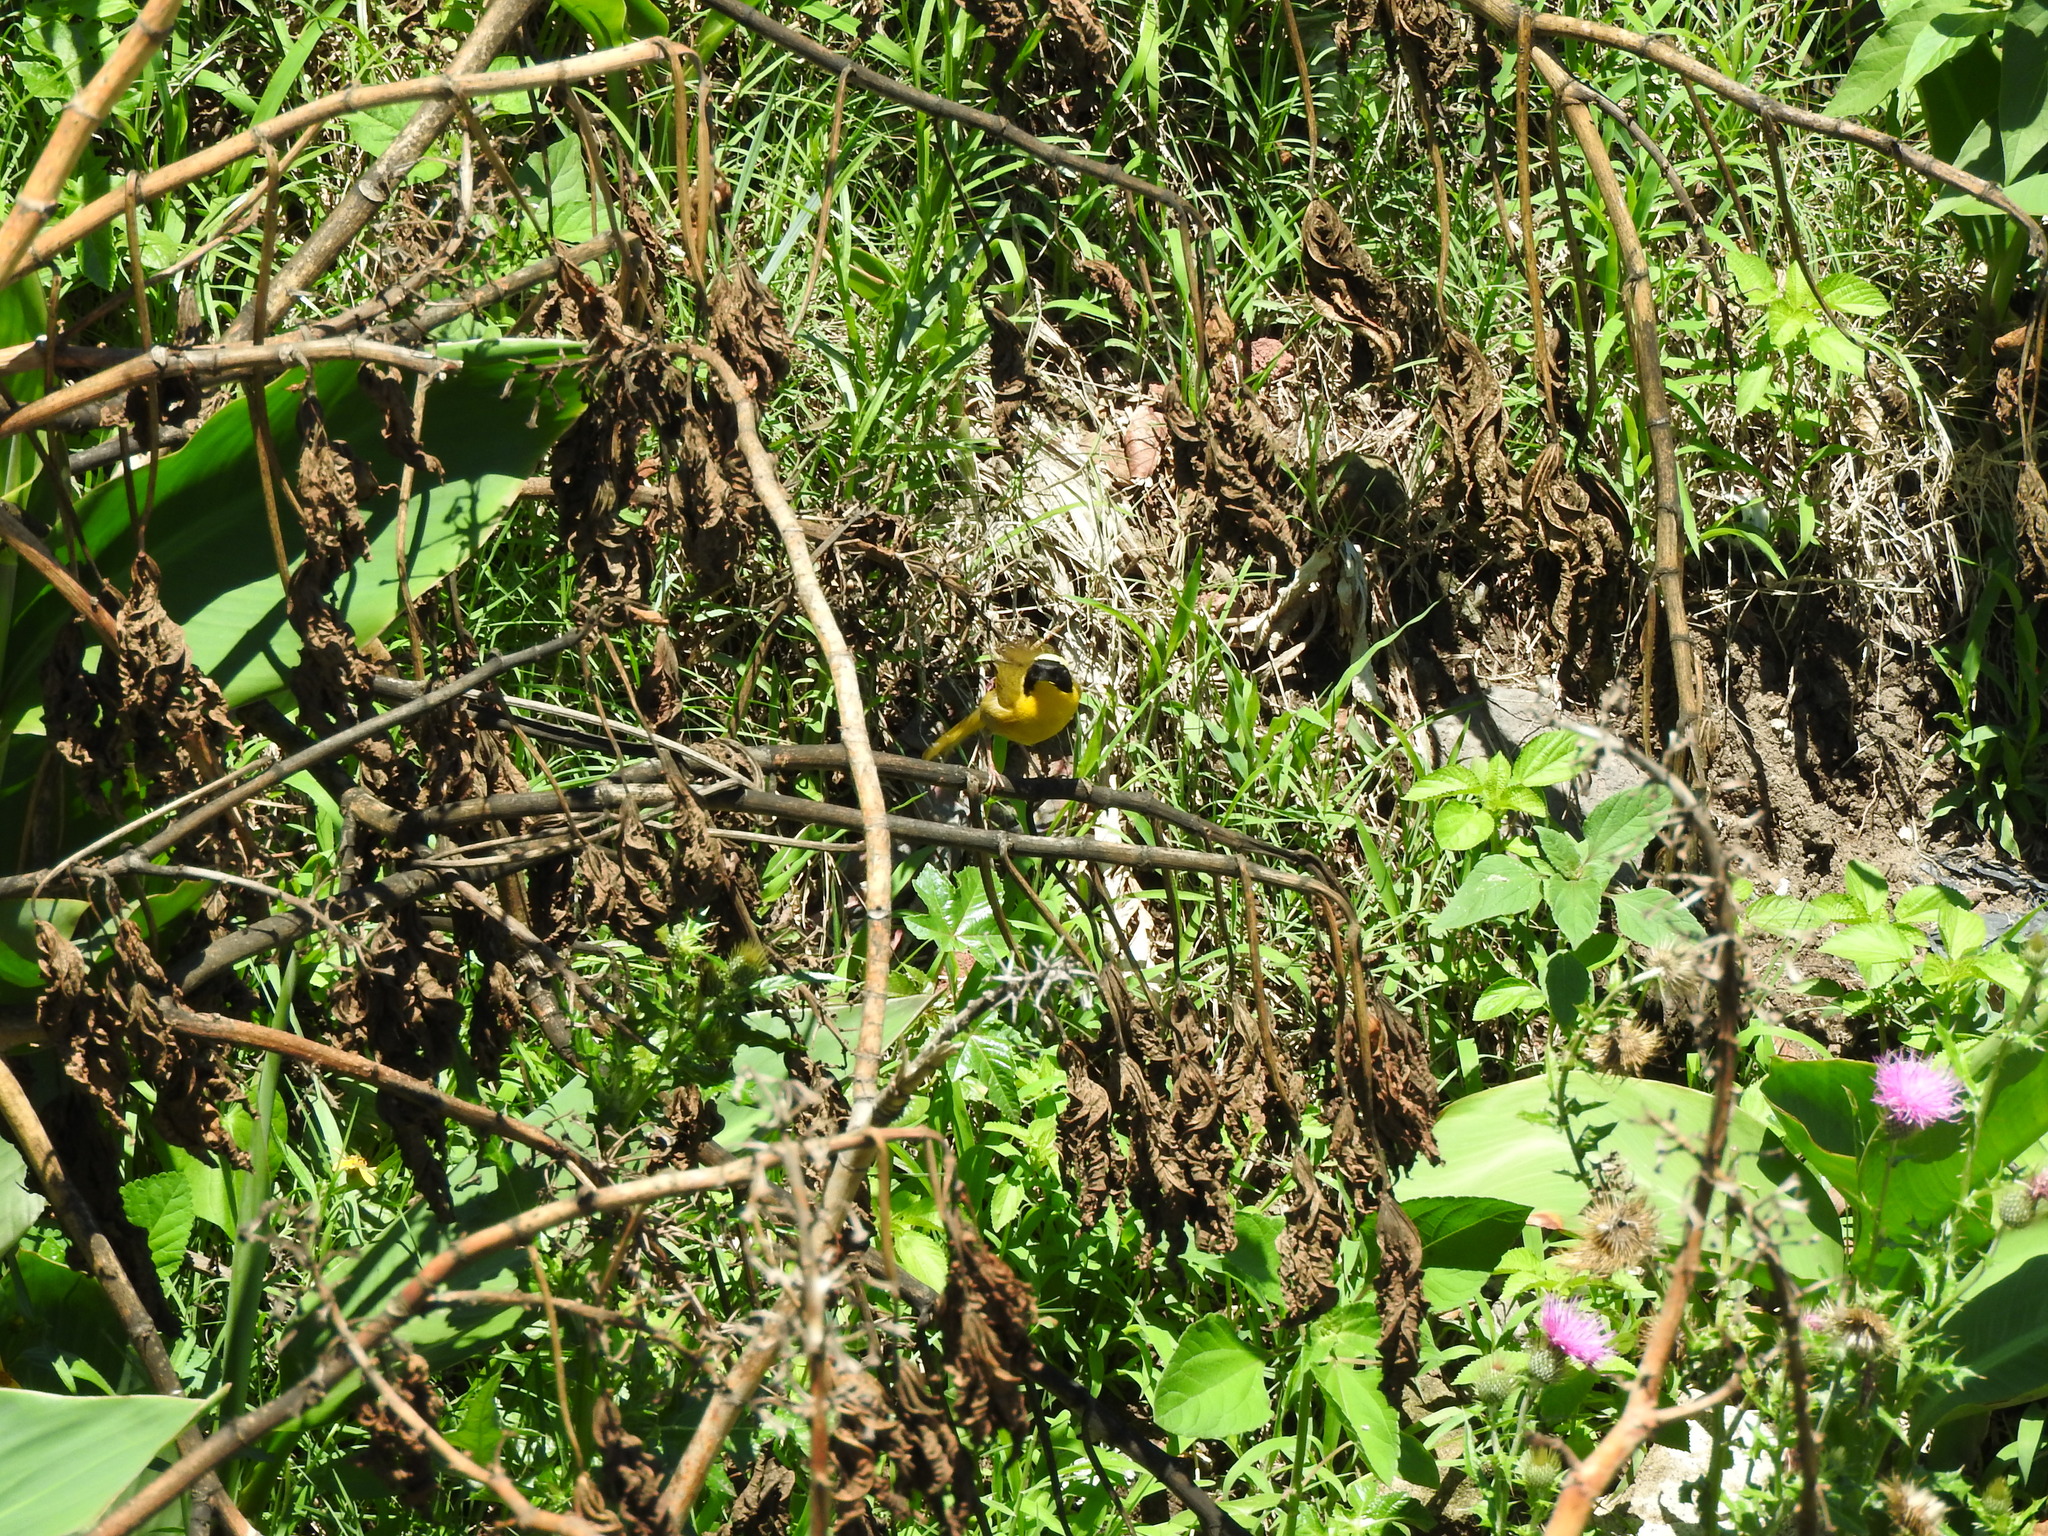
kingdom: Animalia
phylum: Chordata
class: Aves
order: Passeriformes
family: Parulidae
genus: Geothlypis
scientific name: Geothlypis trichas
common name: Common yellowthroat
